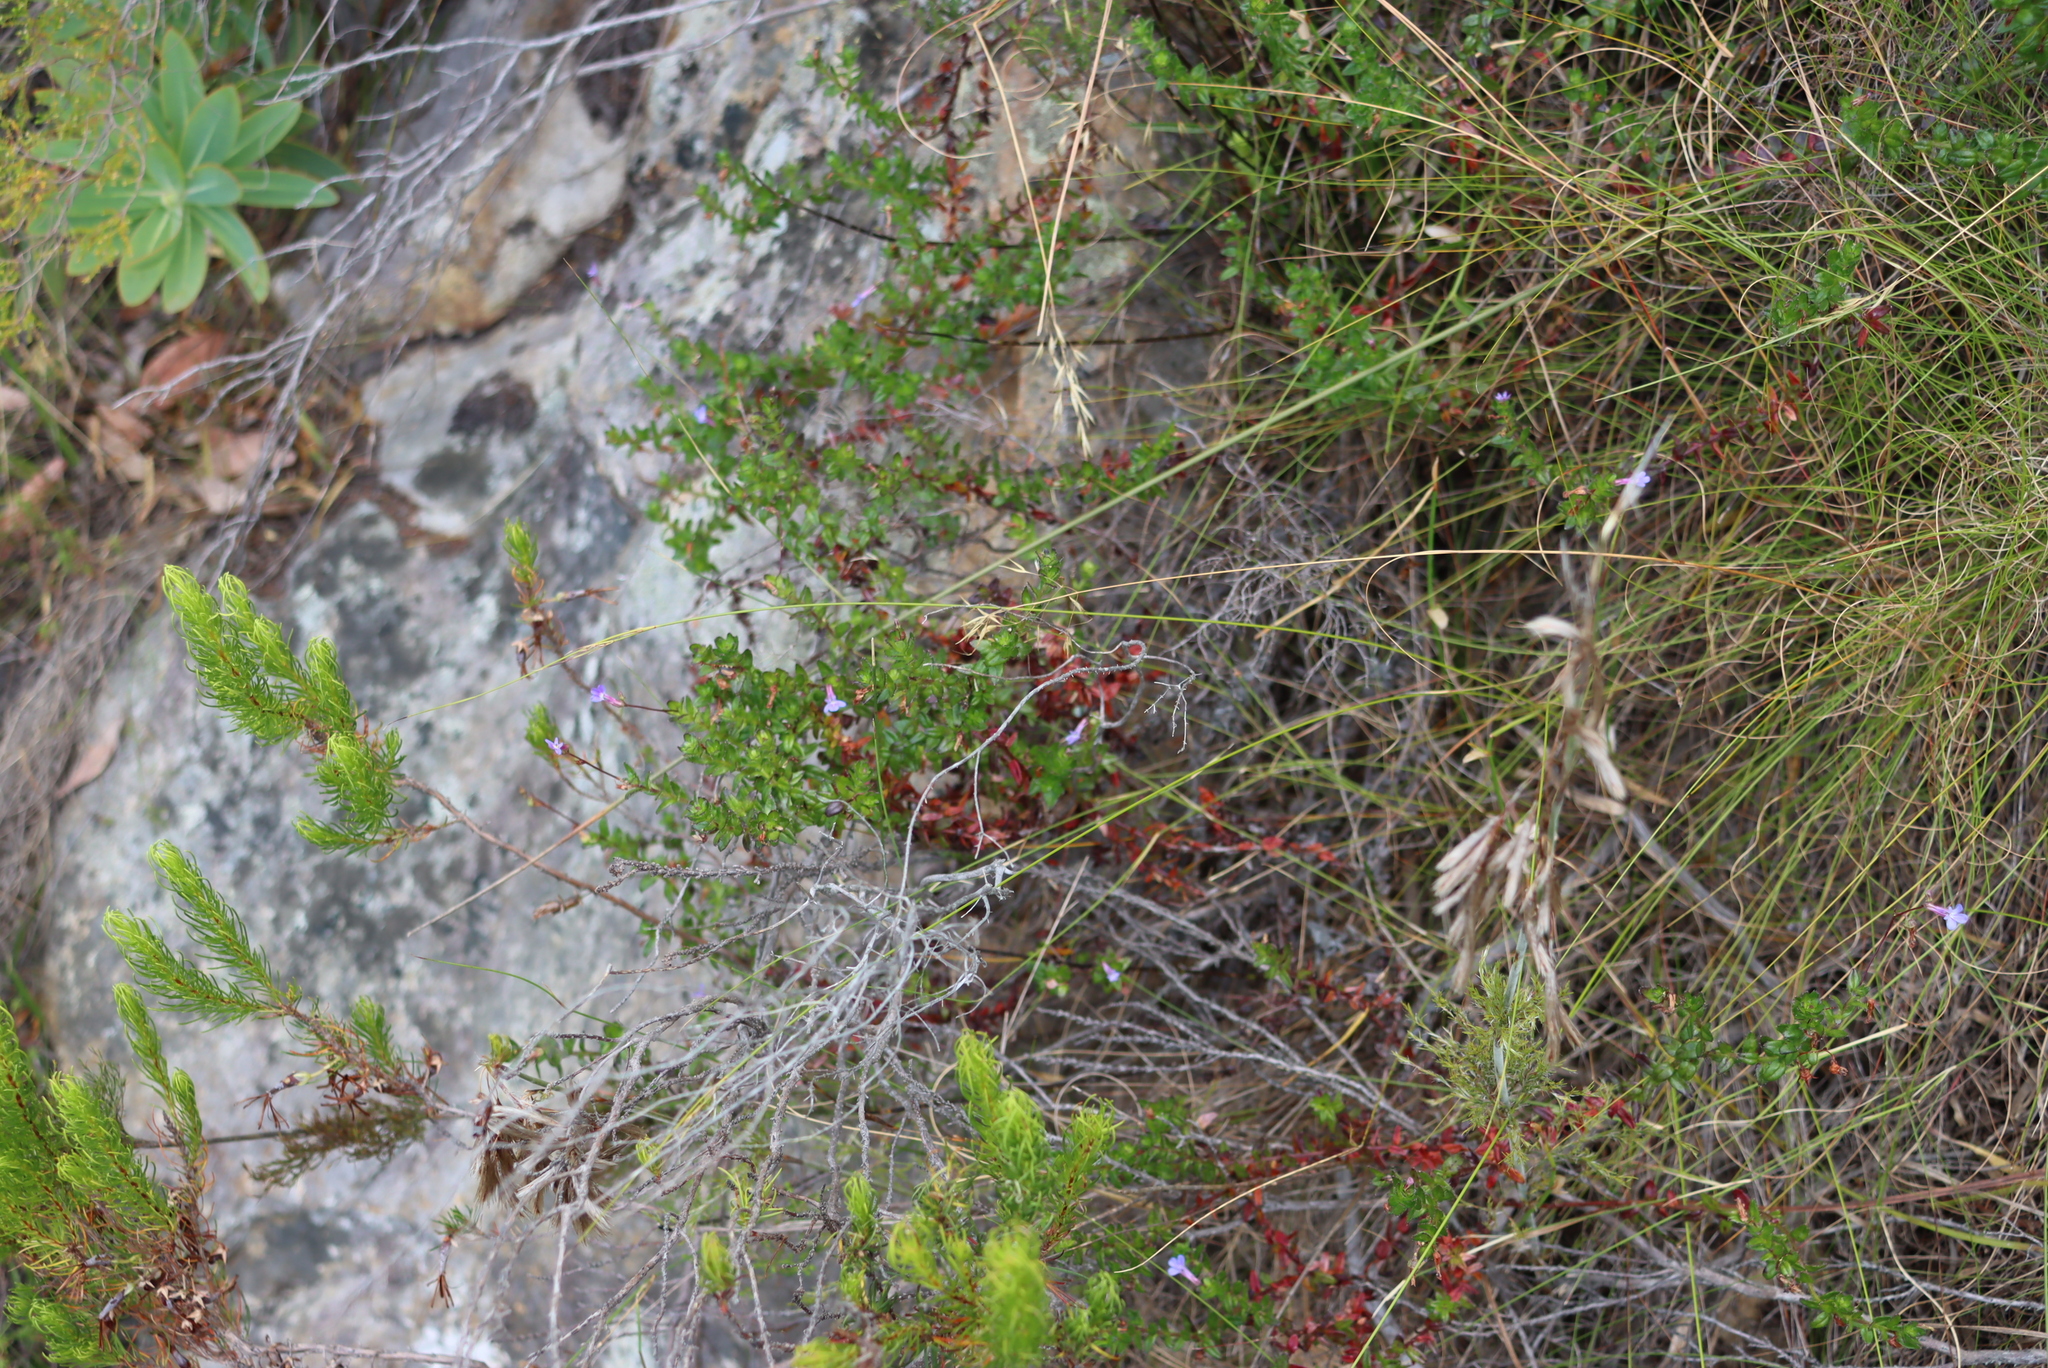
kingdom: Plantae
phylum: Tracheophyta
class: Magnoliopsida
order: Asterales
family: Campanulaceae
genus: Lobelia
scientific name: Lobelia neglecta
